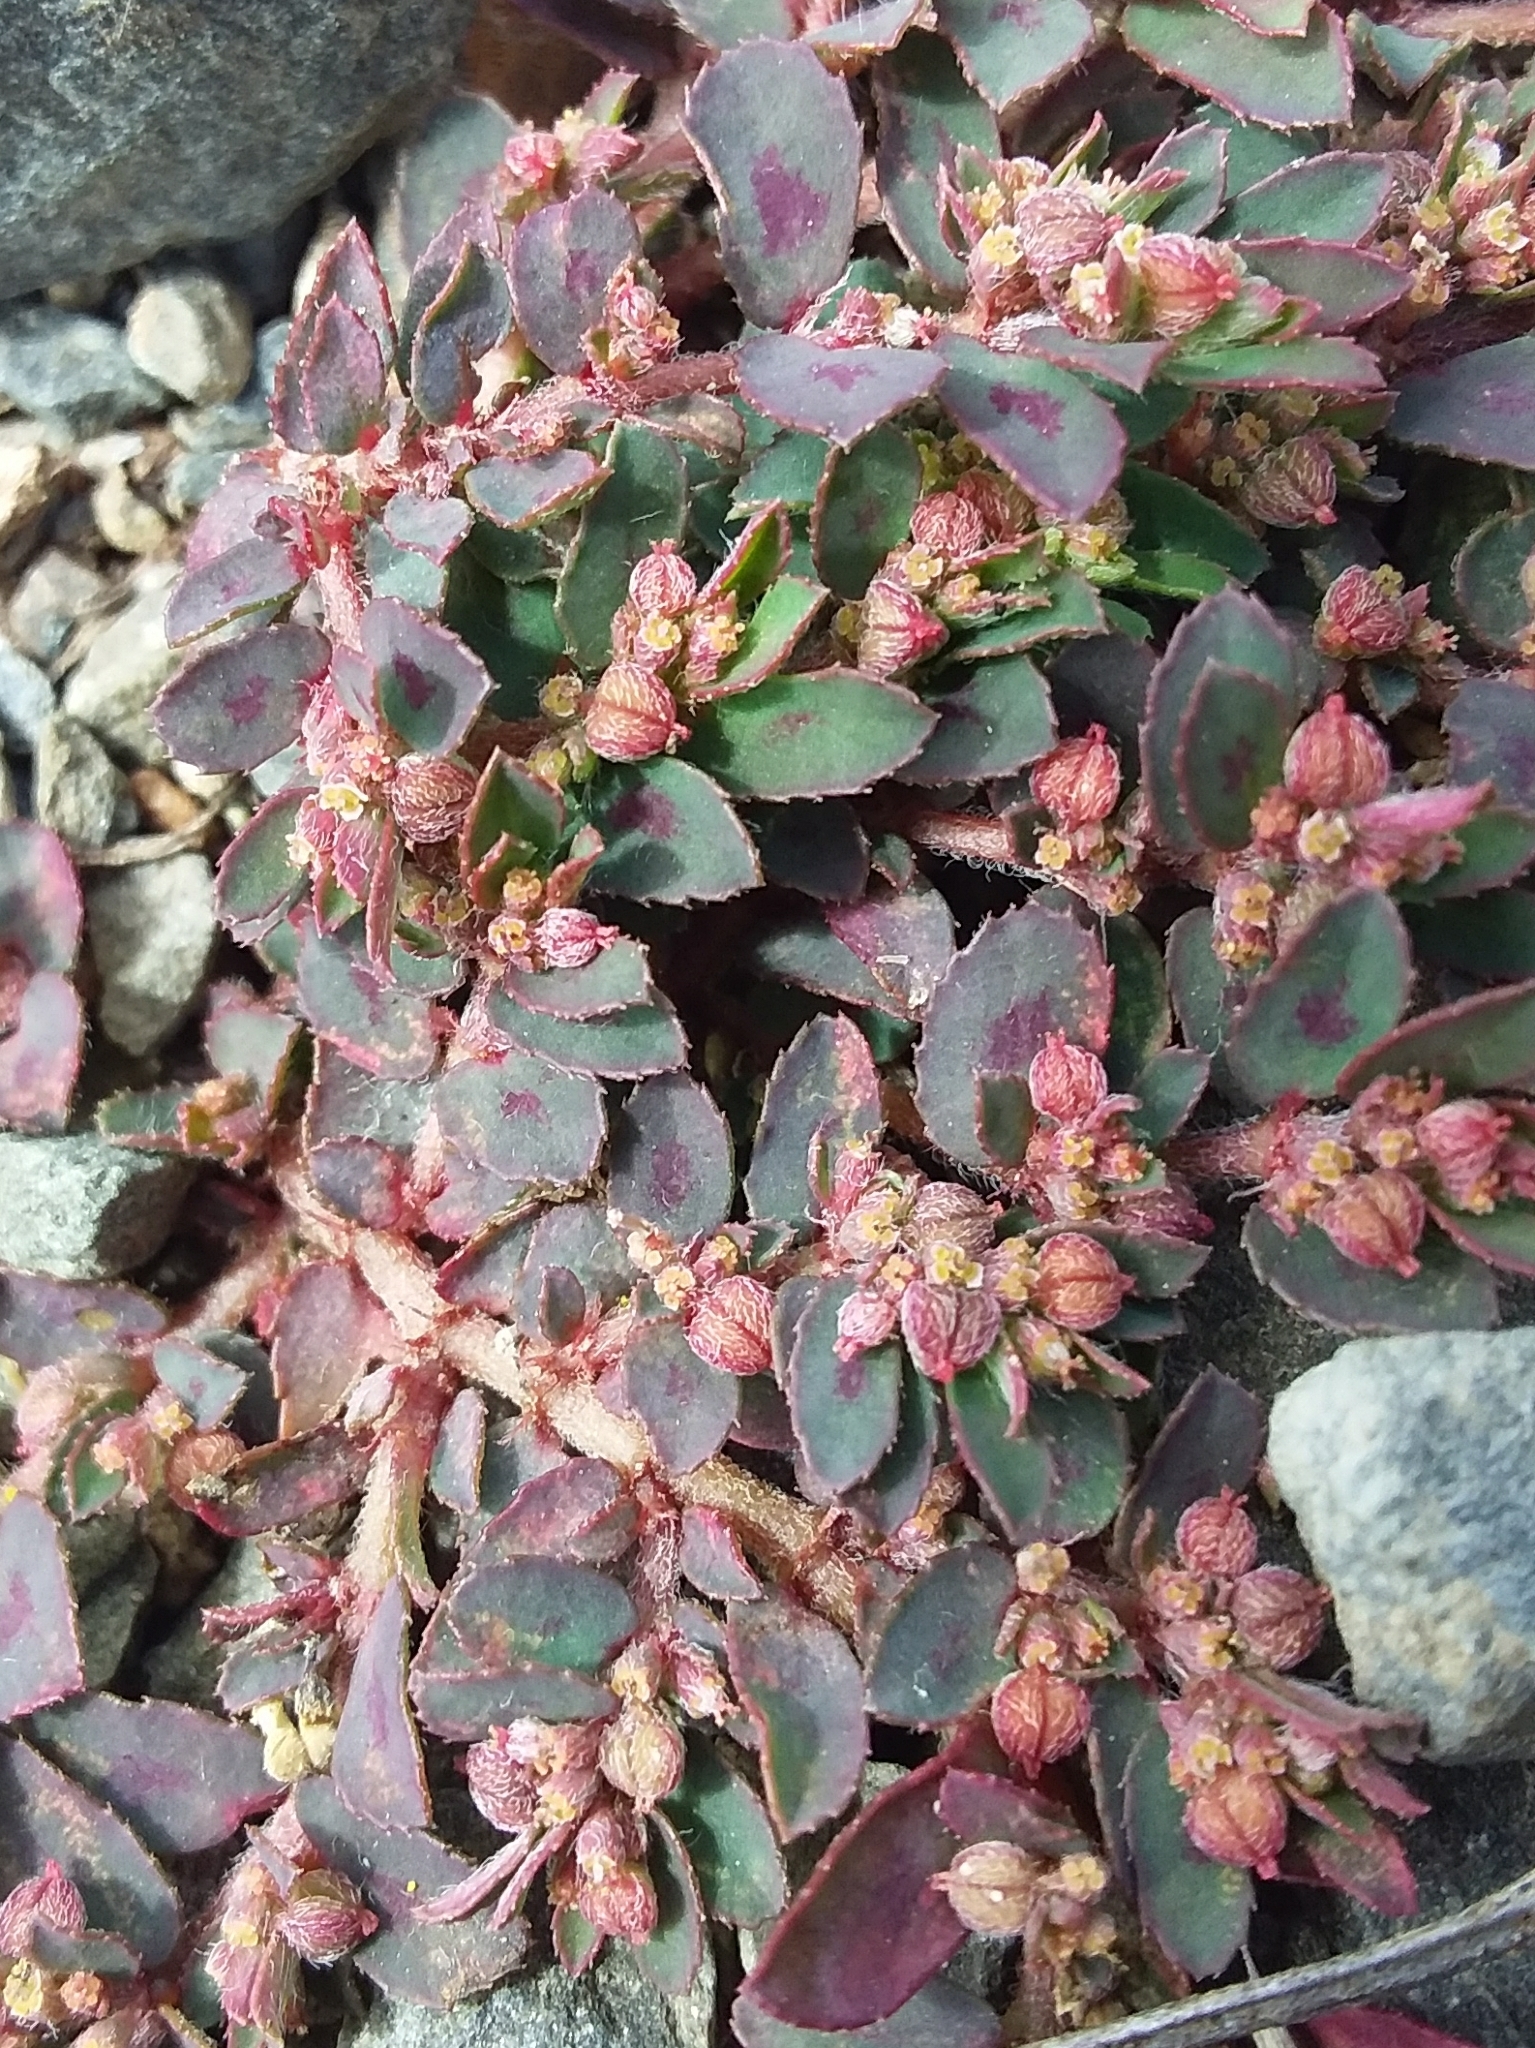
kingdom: Plantae
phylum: Tracheophyta
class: Magnoliopsida
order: Malpighiales
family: Euphorbiaceae
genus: Euphorbia
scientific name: Euphorbia maculata
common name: Spotted spurge
